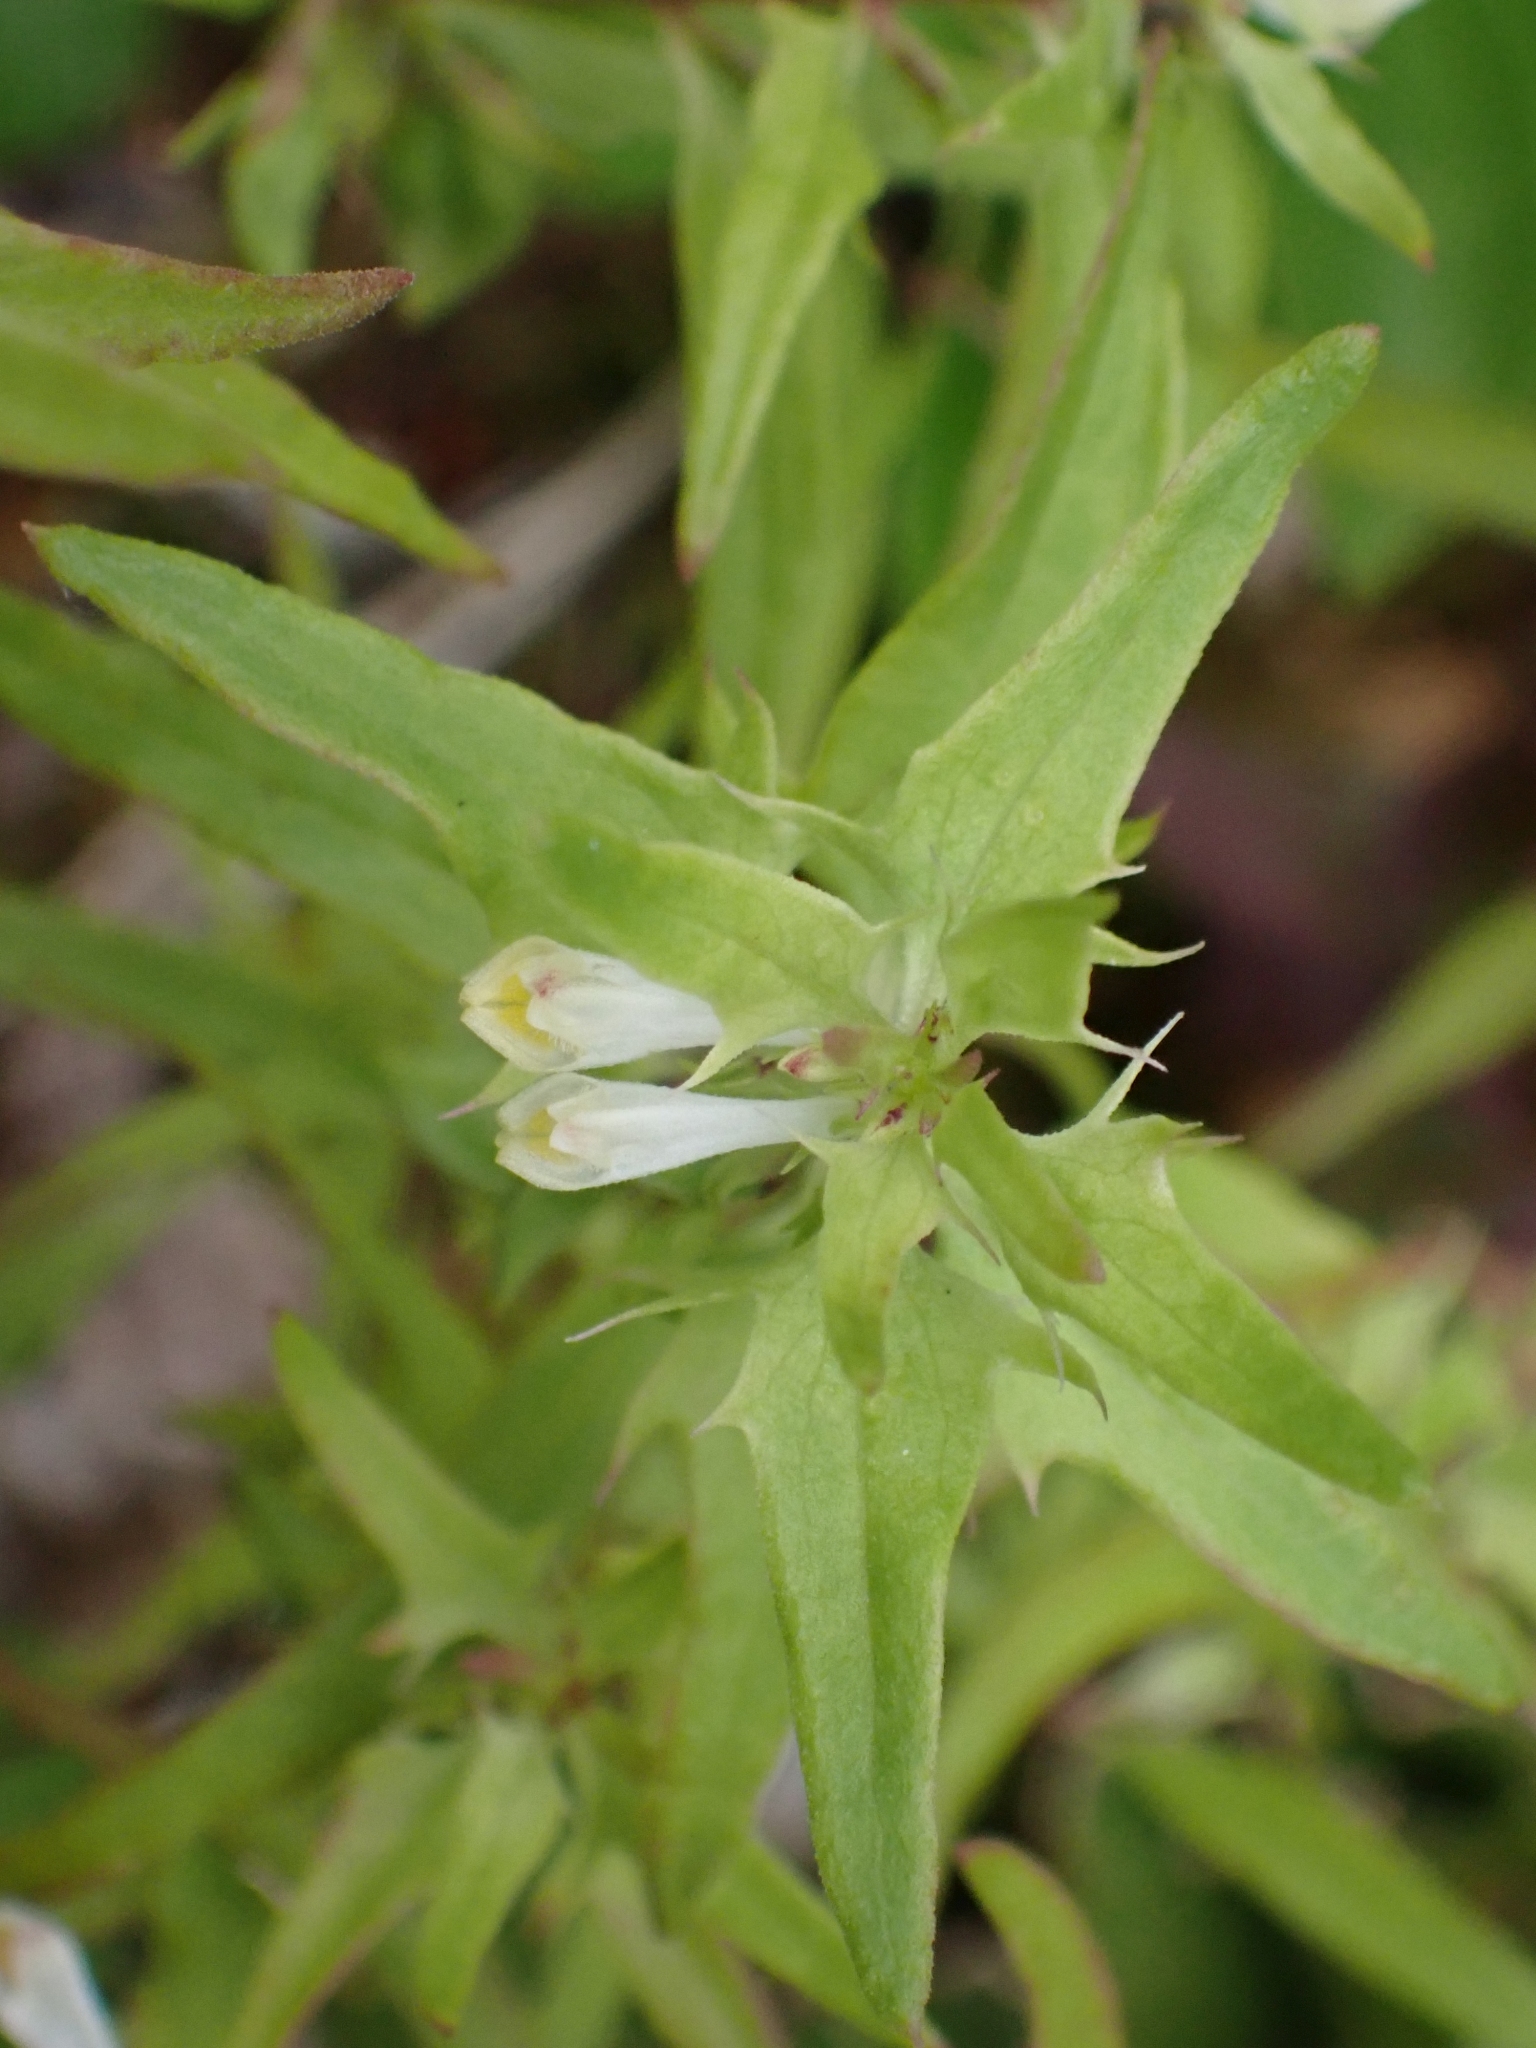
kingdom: Plantae
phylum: Tracheophyta
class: Magnoliopsida
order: Lamiales
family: Orobanchaceae
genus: Melampyrum
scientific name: Melampyrum lineare
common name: American cow-wheat
